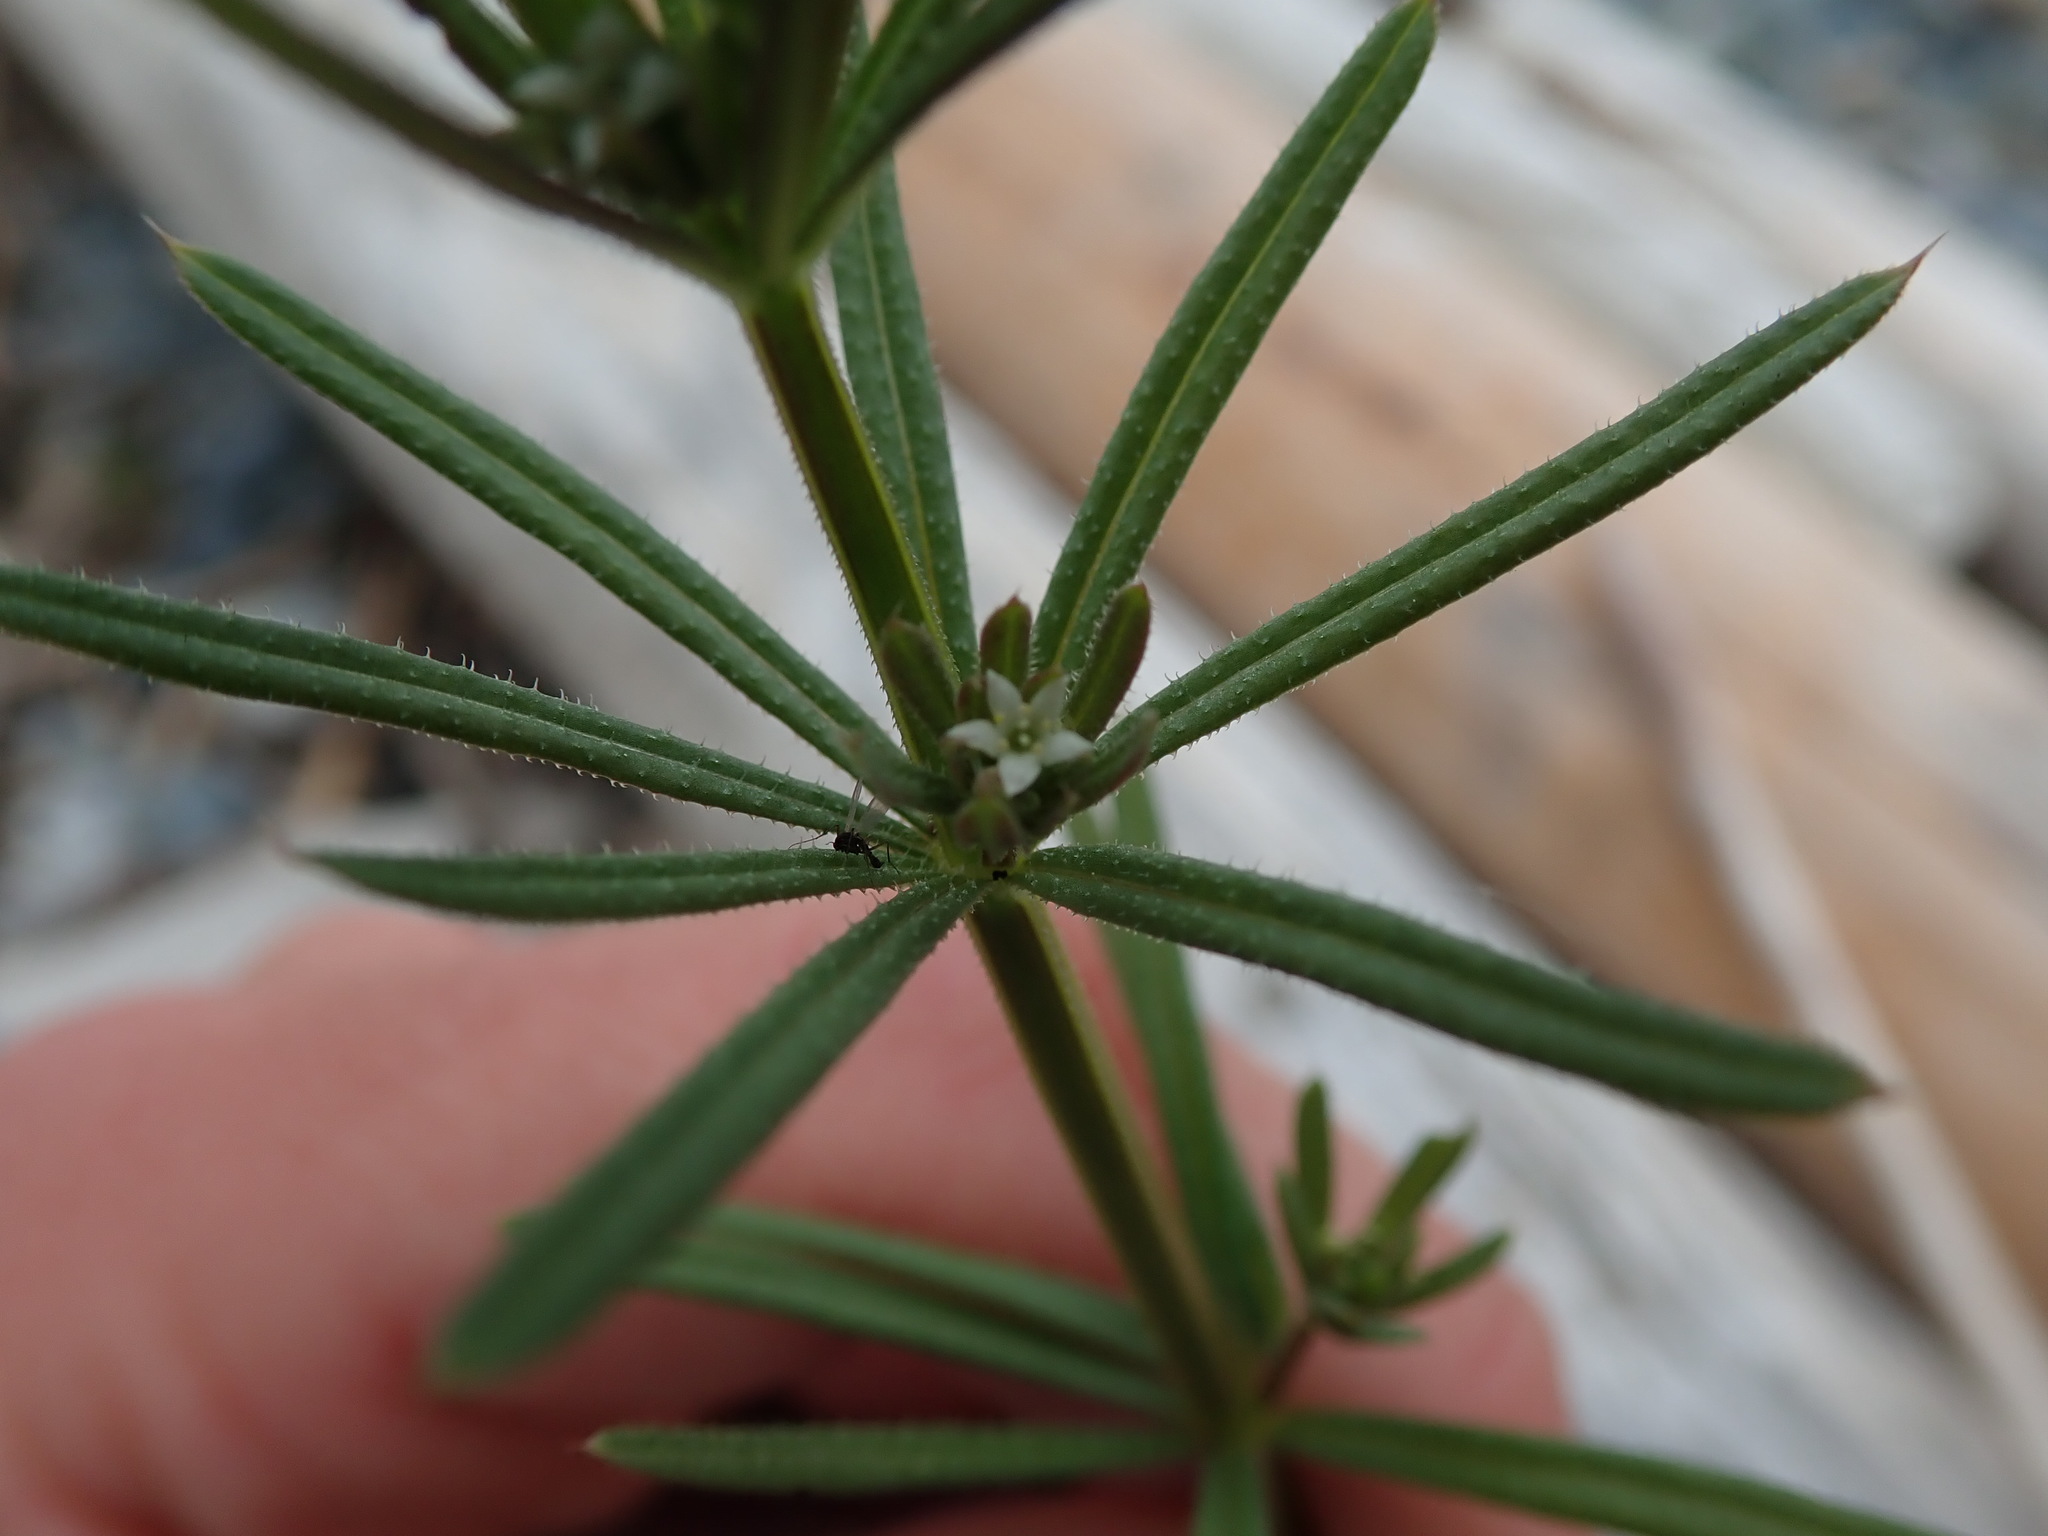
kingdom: Plantae
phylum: Tracheophyta
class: Magnoliopsida
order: Gentianales
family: Rubiaceae
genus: Galium
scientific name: Galium aparine
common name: Cleavers
